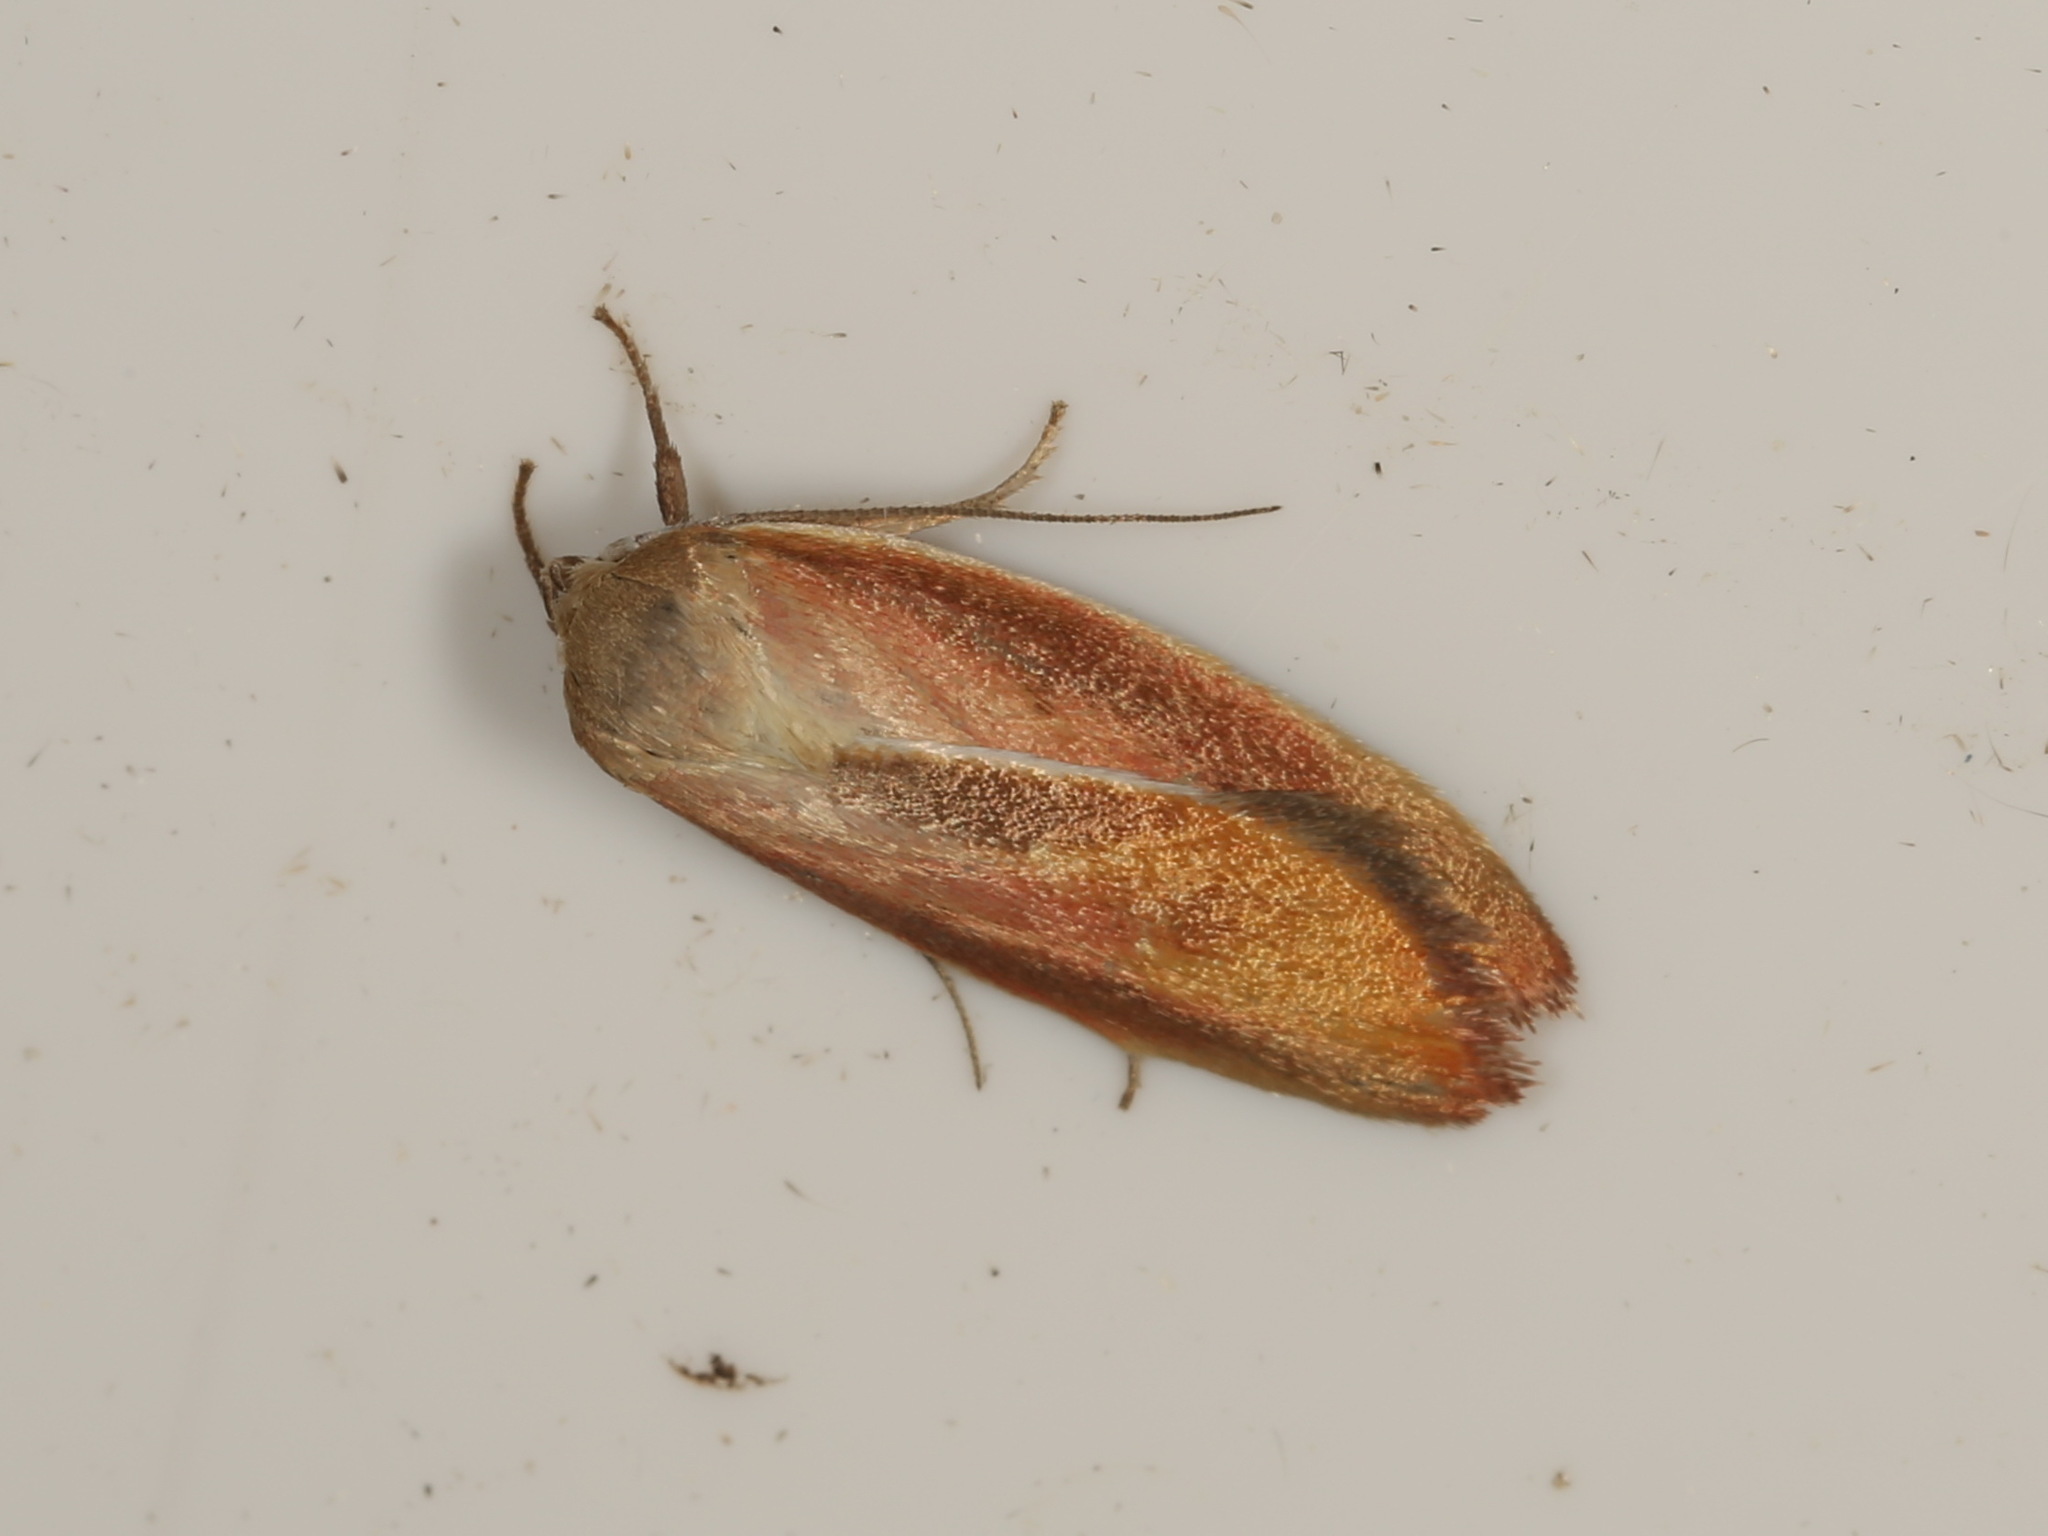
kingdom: Animalia
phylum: Arthropoda
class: Insecta
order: Lepidoptera
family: Oecophoridae
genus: Ptyoptila
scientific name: Ptyoptila matutinella
